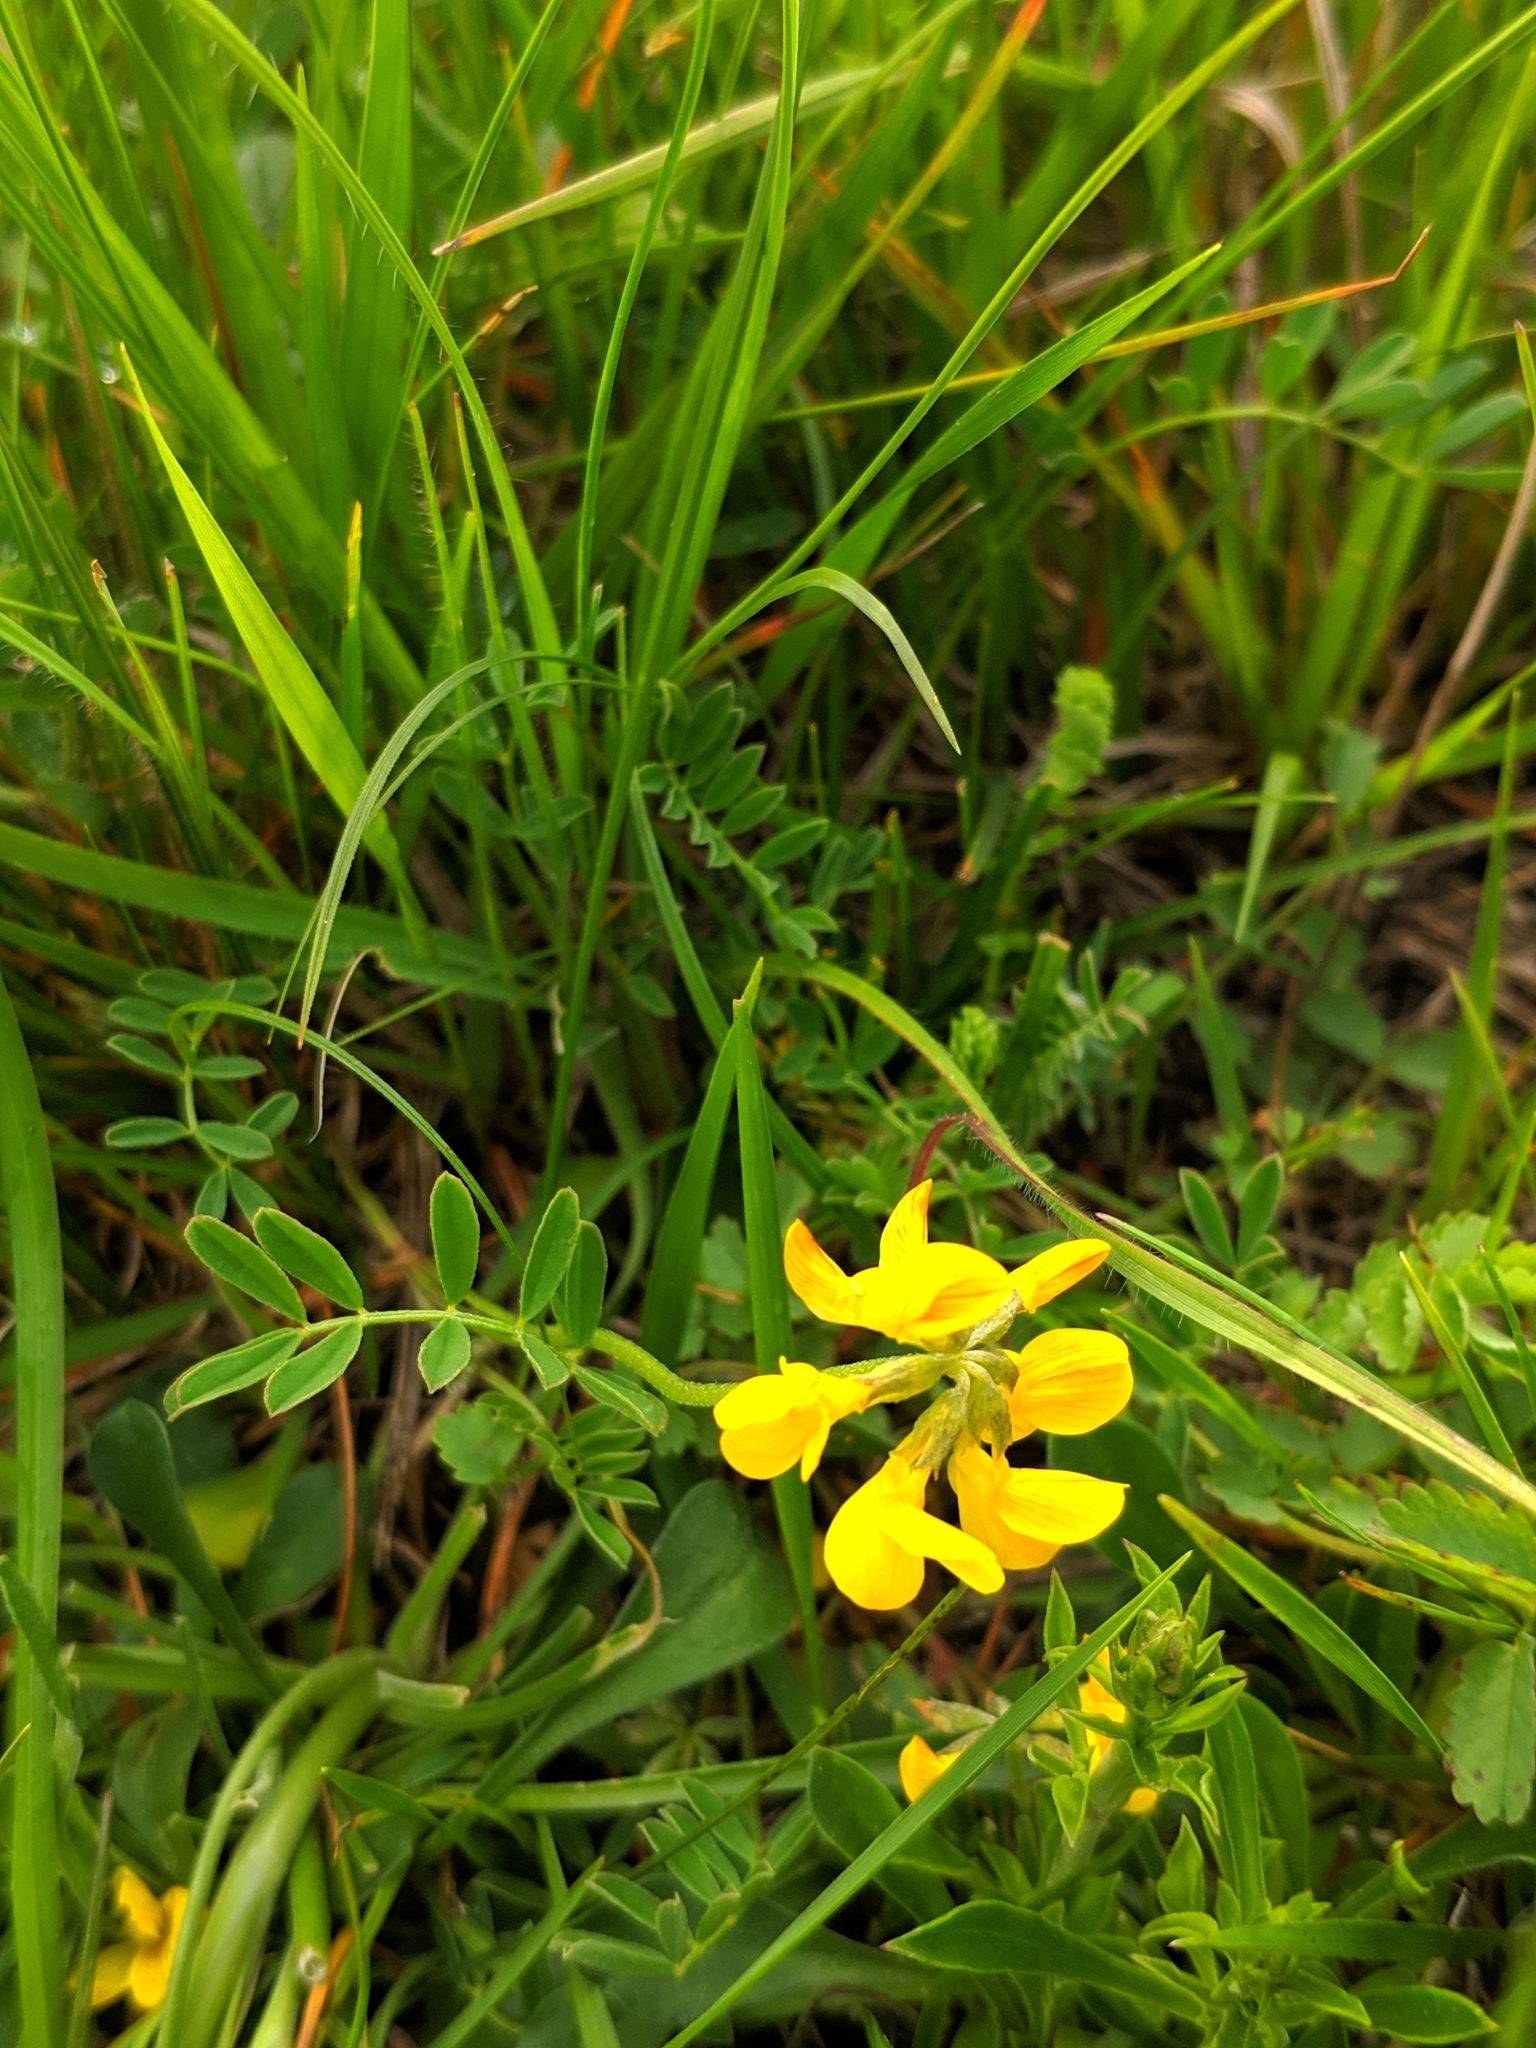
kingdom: Plantae
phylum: Tracheophyta
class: Magnoliopsida
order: Fabales
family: Fabaceae
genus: Hippocrepis
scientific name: Hippocrepis comosa
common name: Horseshoe vetch
